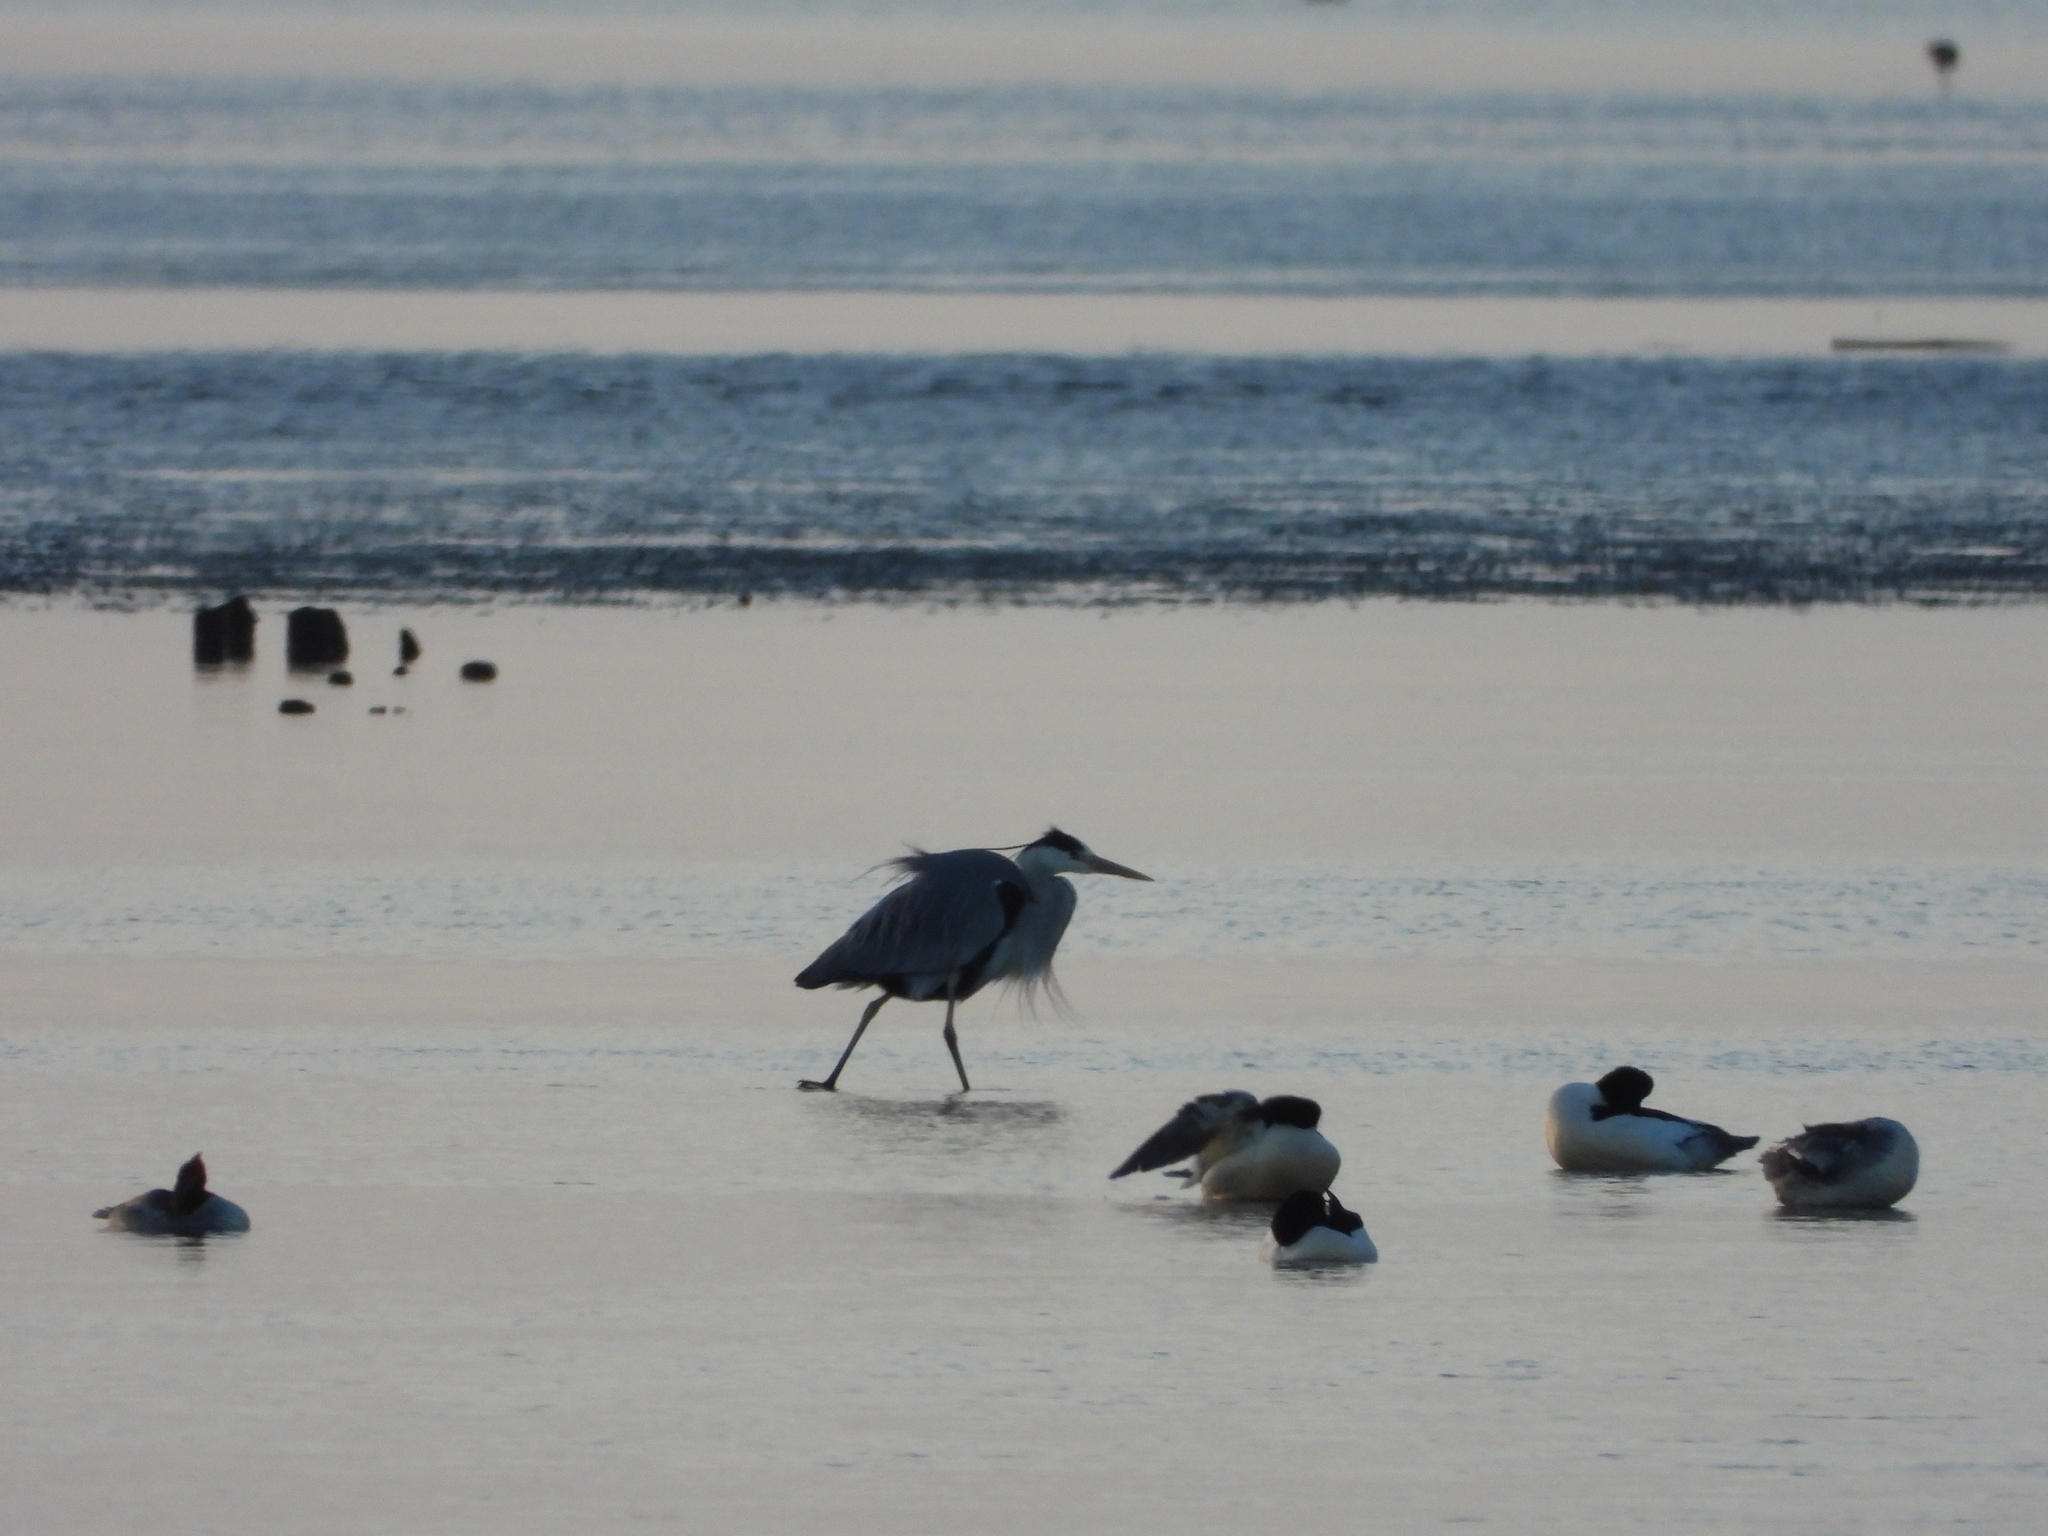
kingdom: Animalia
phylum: Chordata
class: Aves
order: Pelecaniformes
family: Ardeidae
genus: Ardea
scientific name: Ardea cinerea
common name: Grey heron
